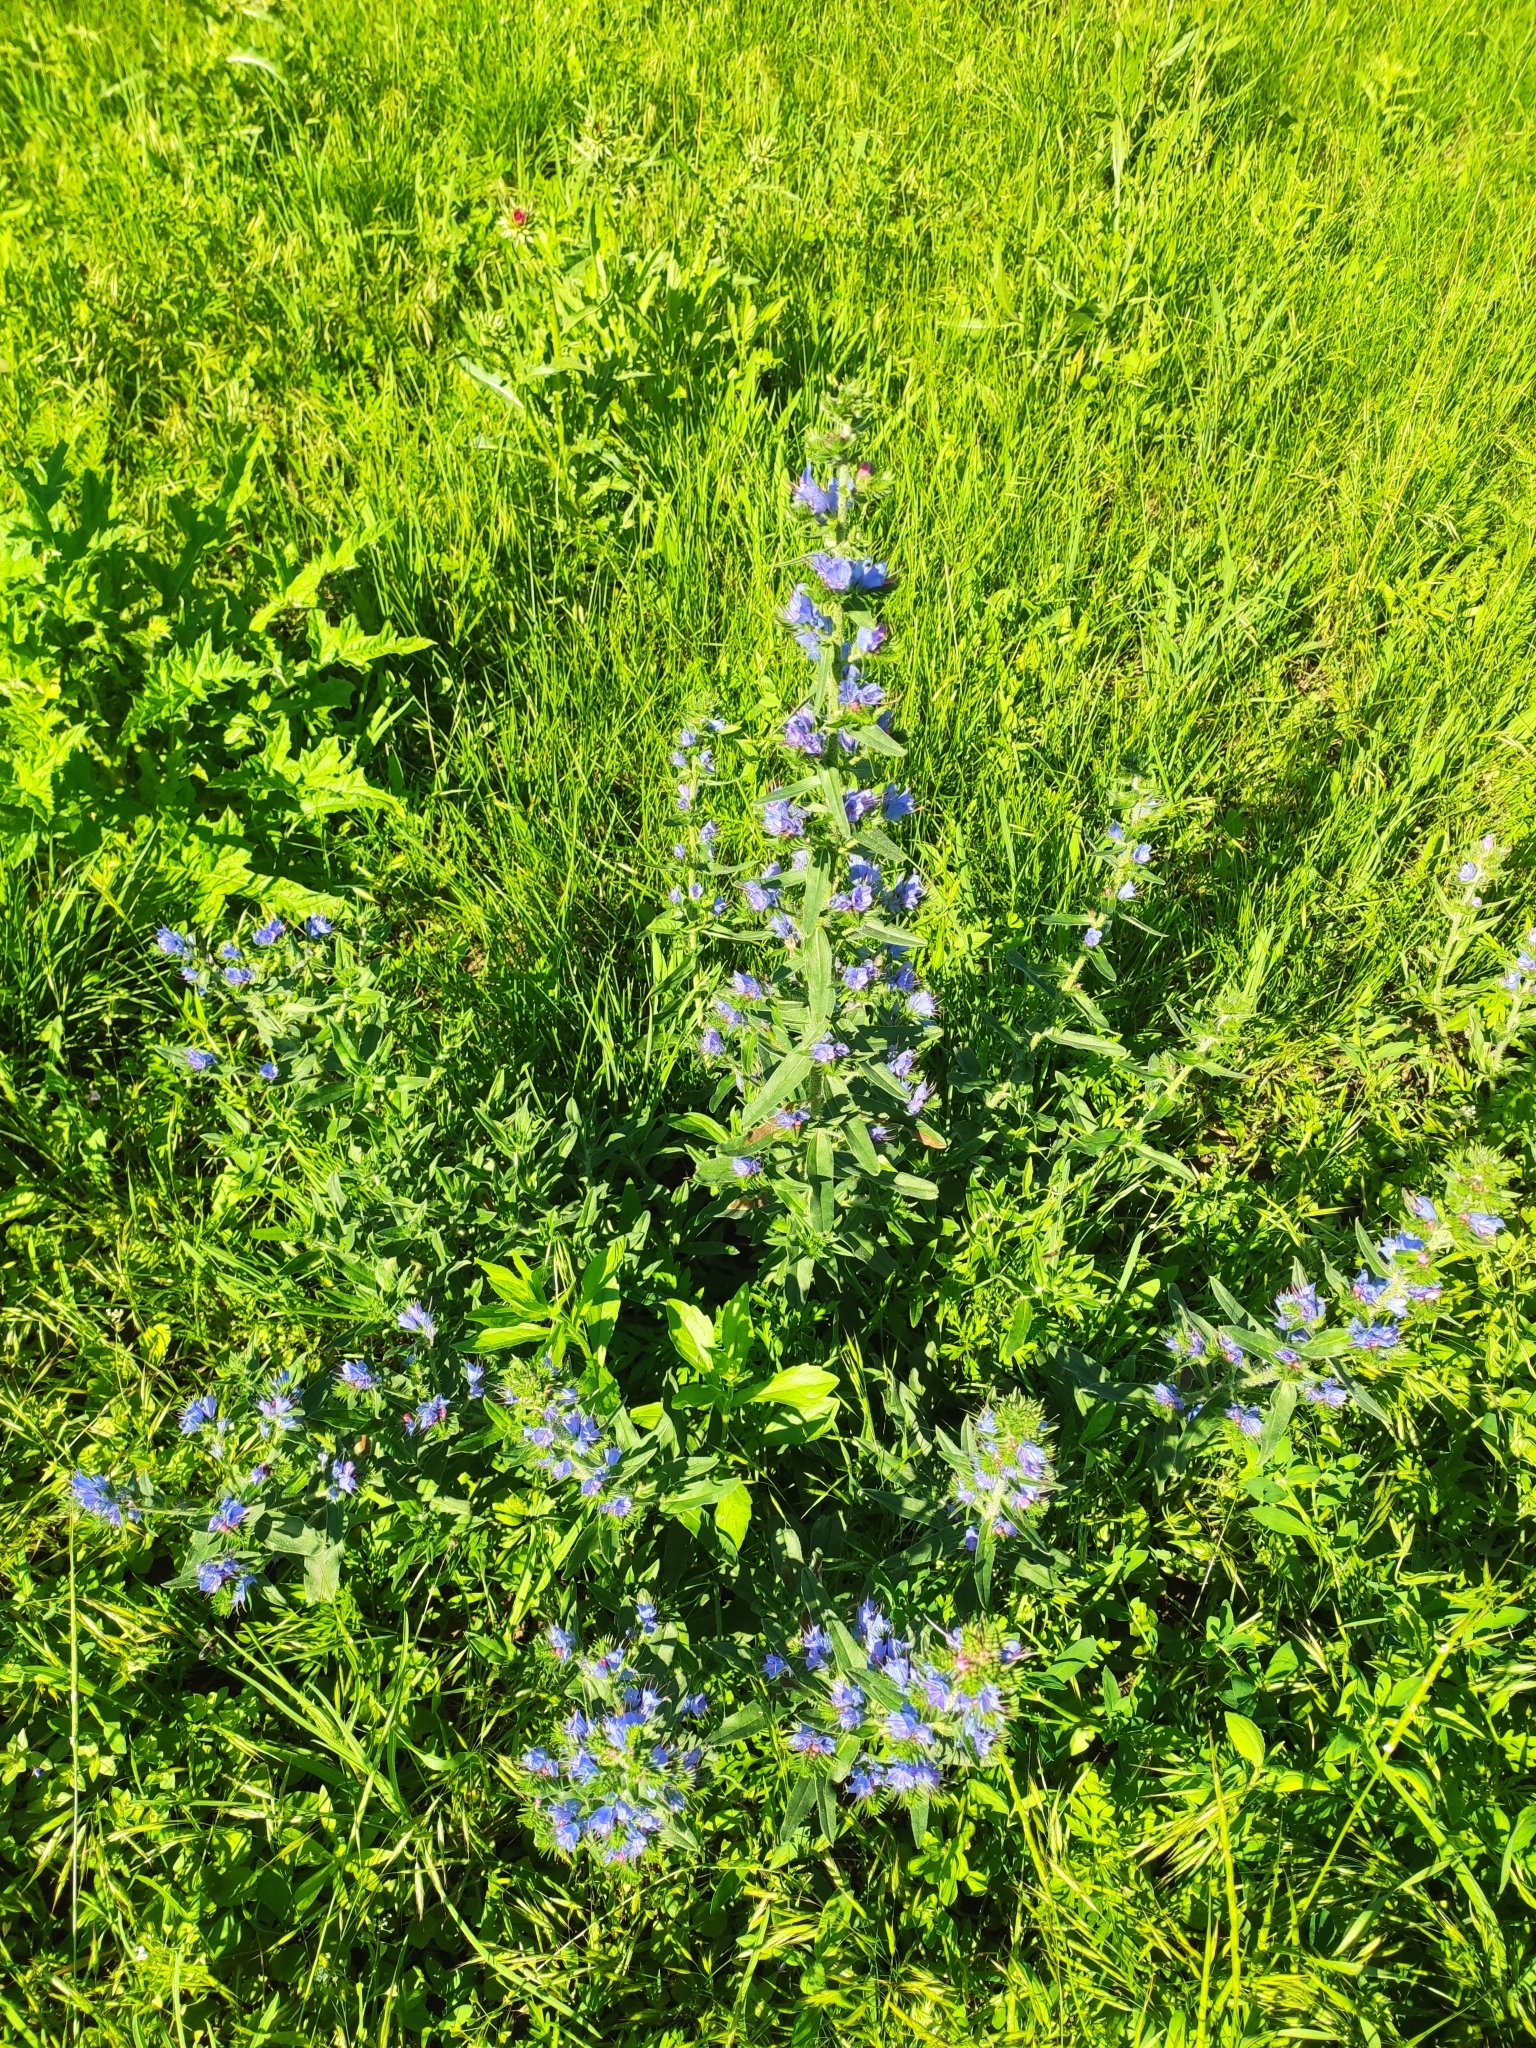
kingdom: Plantae
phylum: Tracheophyta
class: Magnoliopsida
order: Boraginales
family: Boraginaceae
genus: Echium
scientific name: Echium vulgare
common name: Common viper's bugloss
